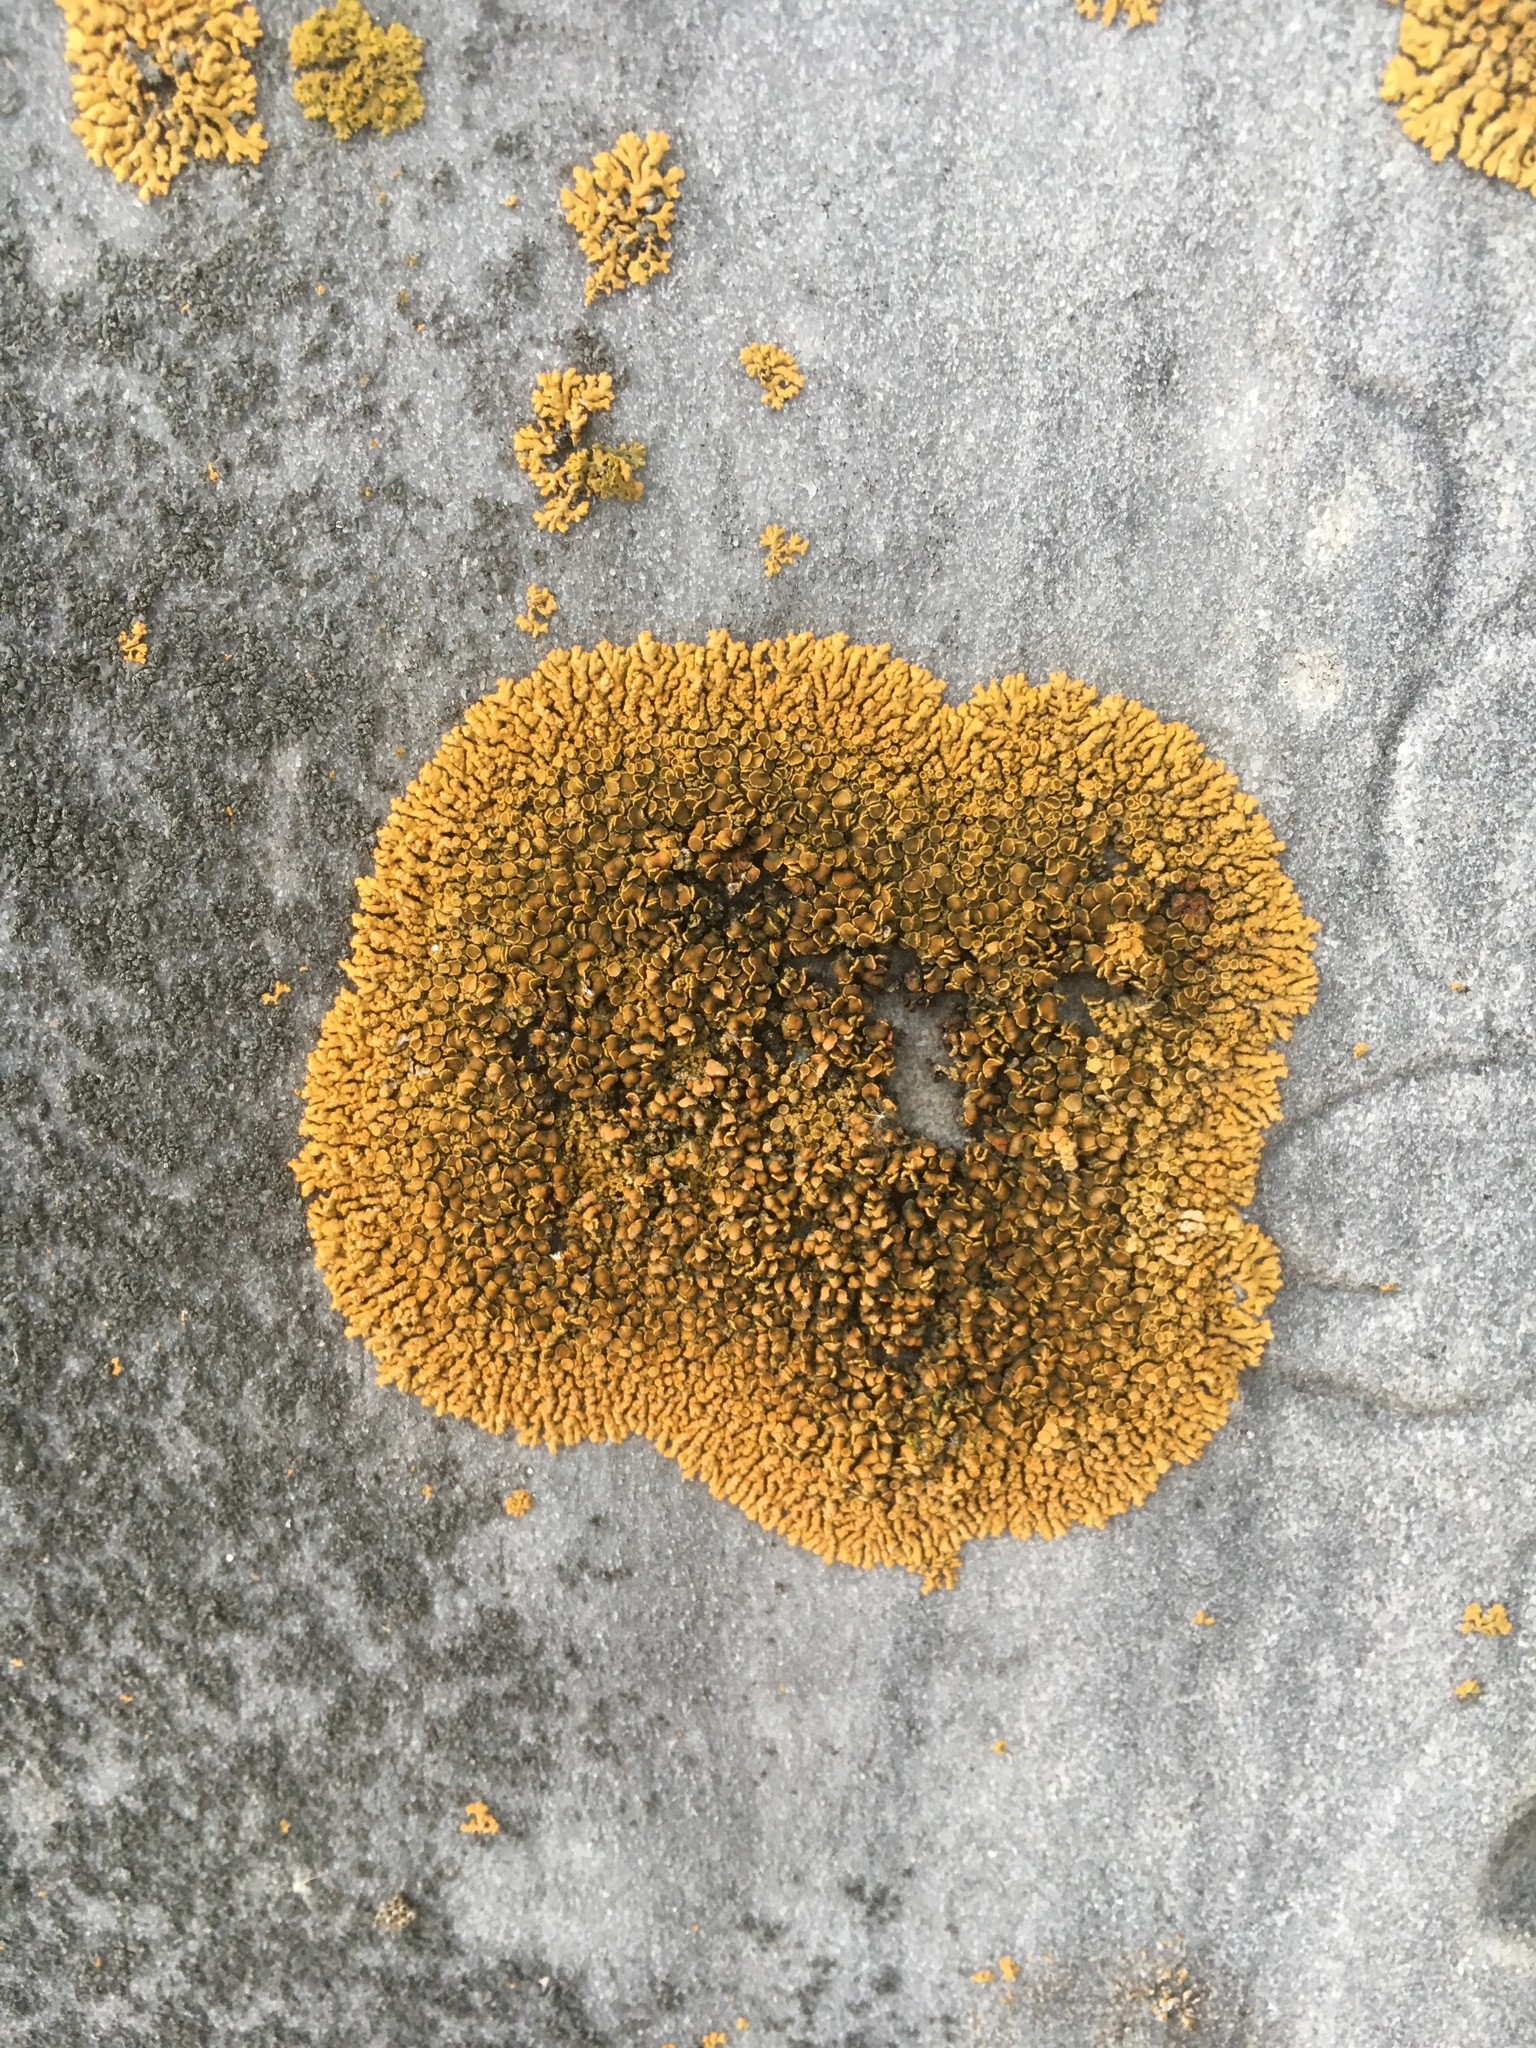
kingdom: Fungi
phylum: Ascomycota
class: Lecanoromycetes
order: Teloschistales
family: Teloschistaceae
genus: Xanthoria
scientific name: Xanthoria elegans
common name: Elegant sunburst lichen
